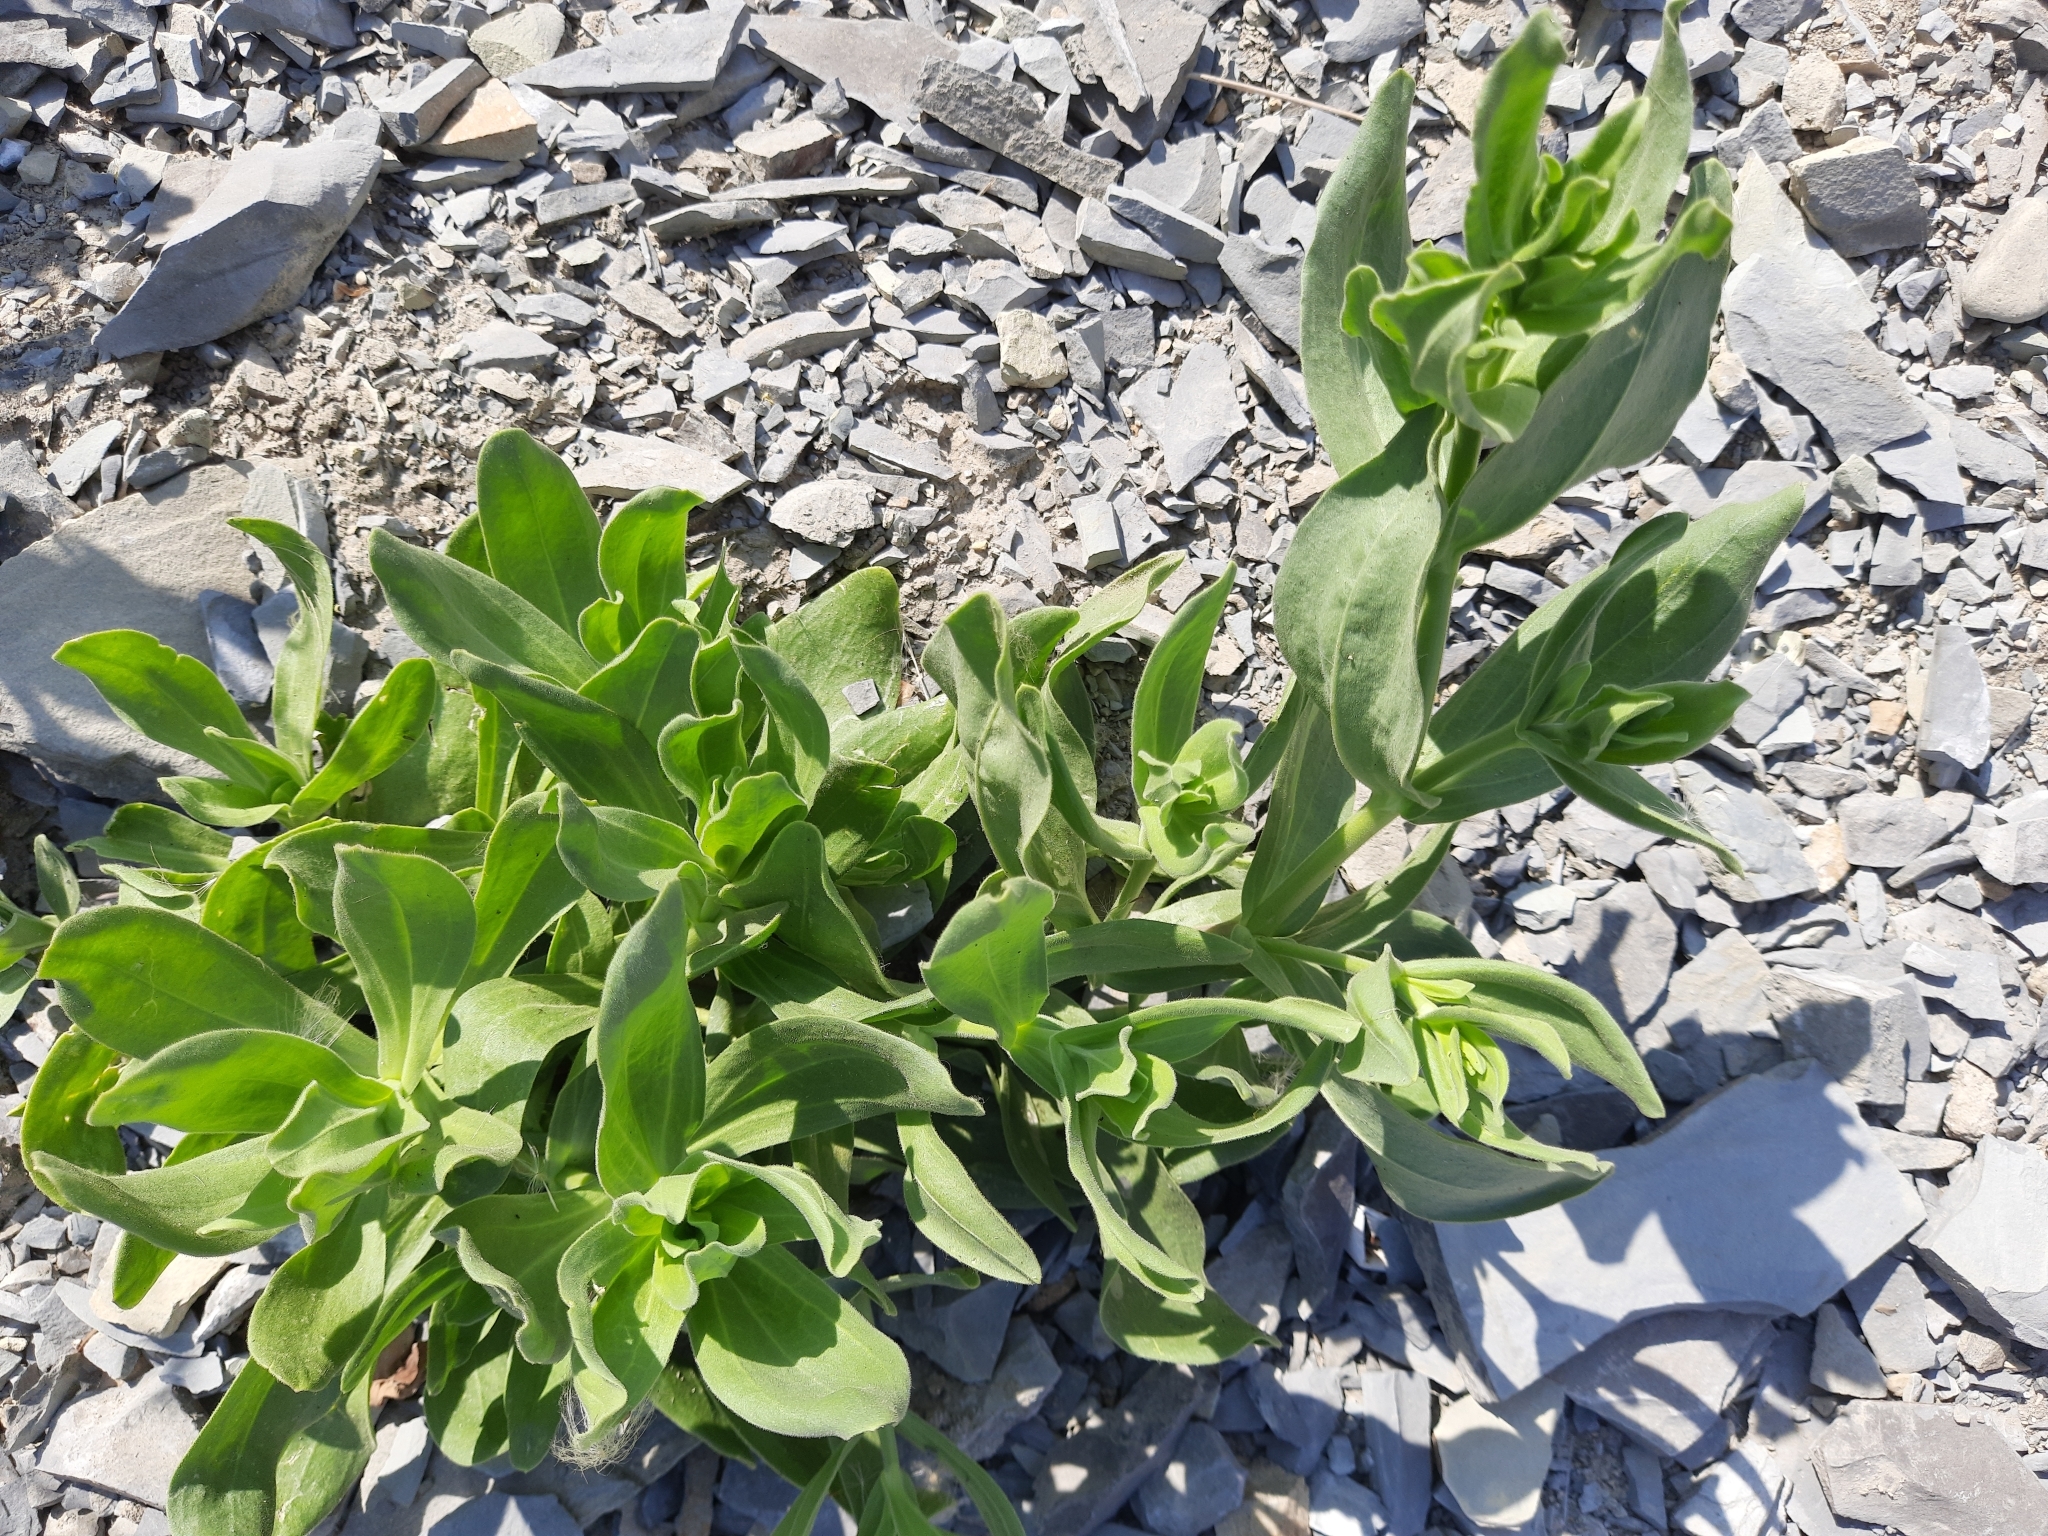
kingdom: Plantae
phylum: Tracheophyta
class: Magnoliopsida
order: Caryophyllales
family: Caryophyllaceae
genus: Gypsophila
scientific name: Gypsophila perfoliata
